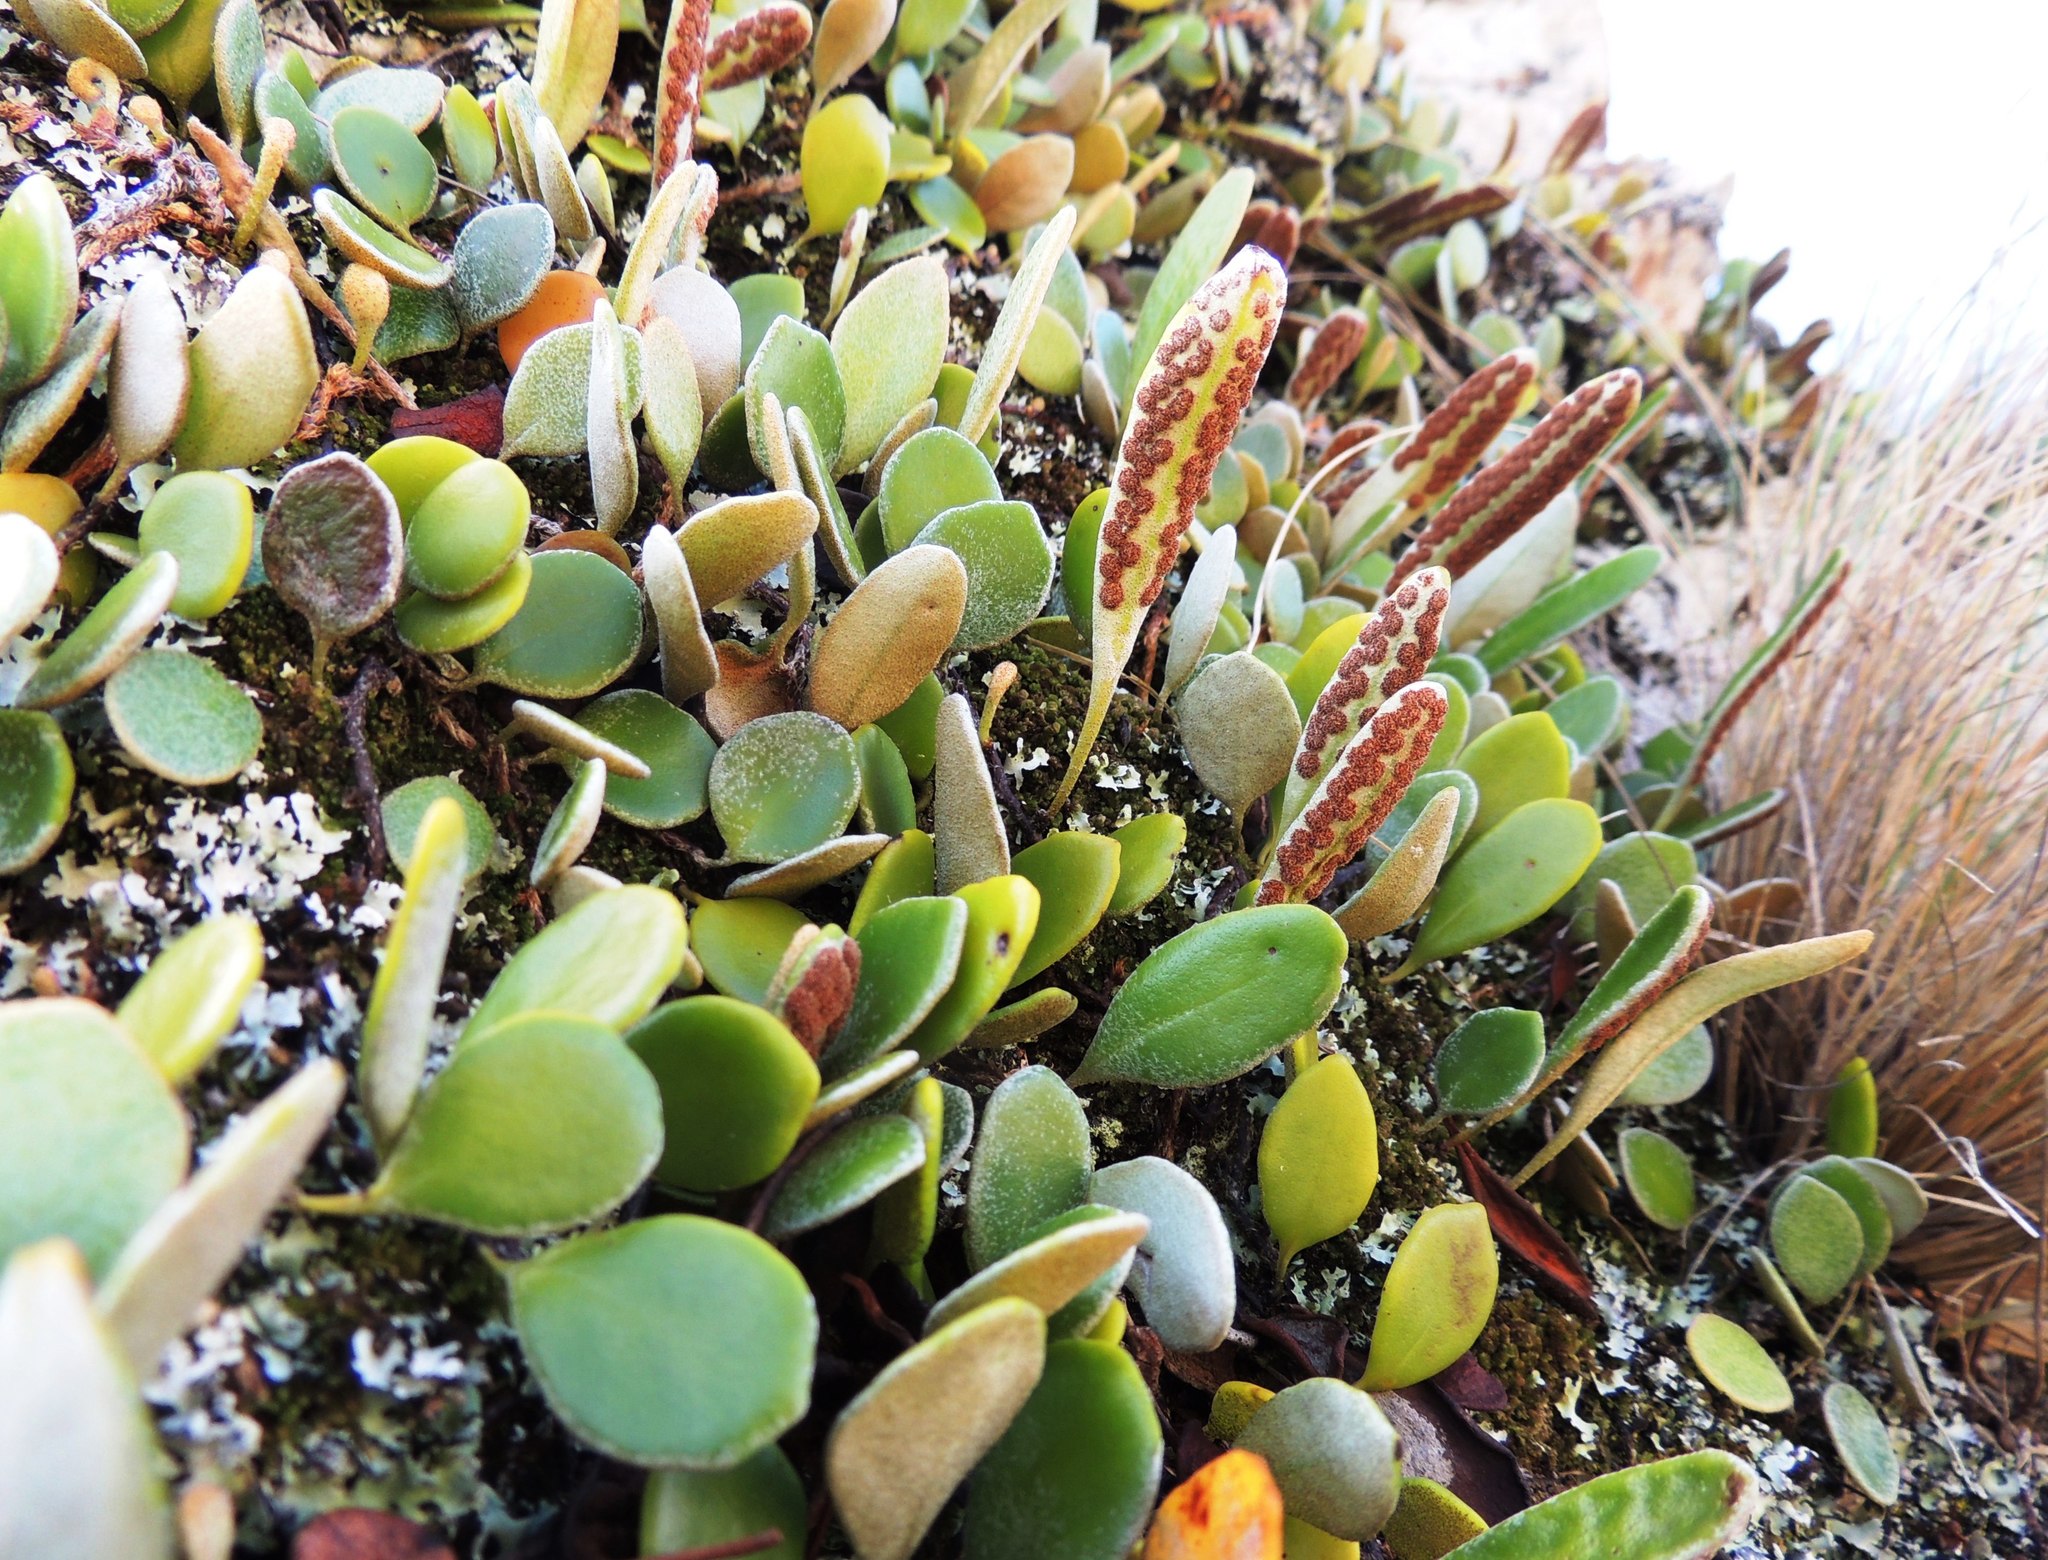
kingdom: Plantae
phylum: Tracheophyta
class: Polypodiopsida
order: Polypodiales
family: Polypodiaceae
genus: Pyrrosia
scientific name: Pyrrosia eleagnifolia
